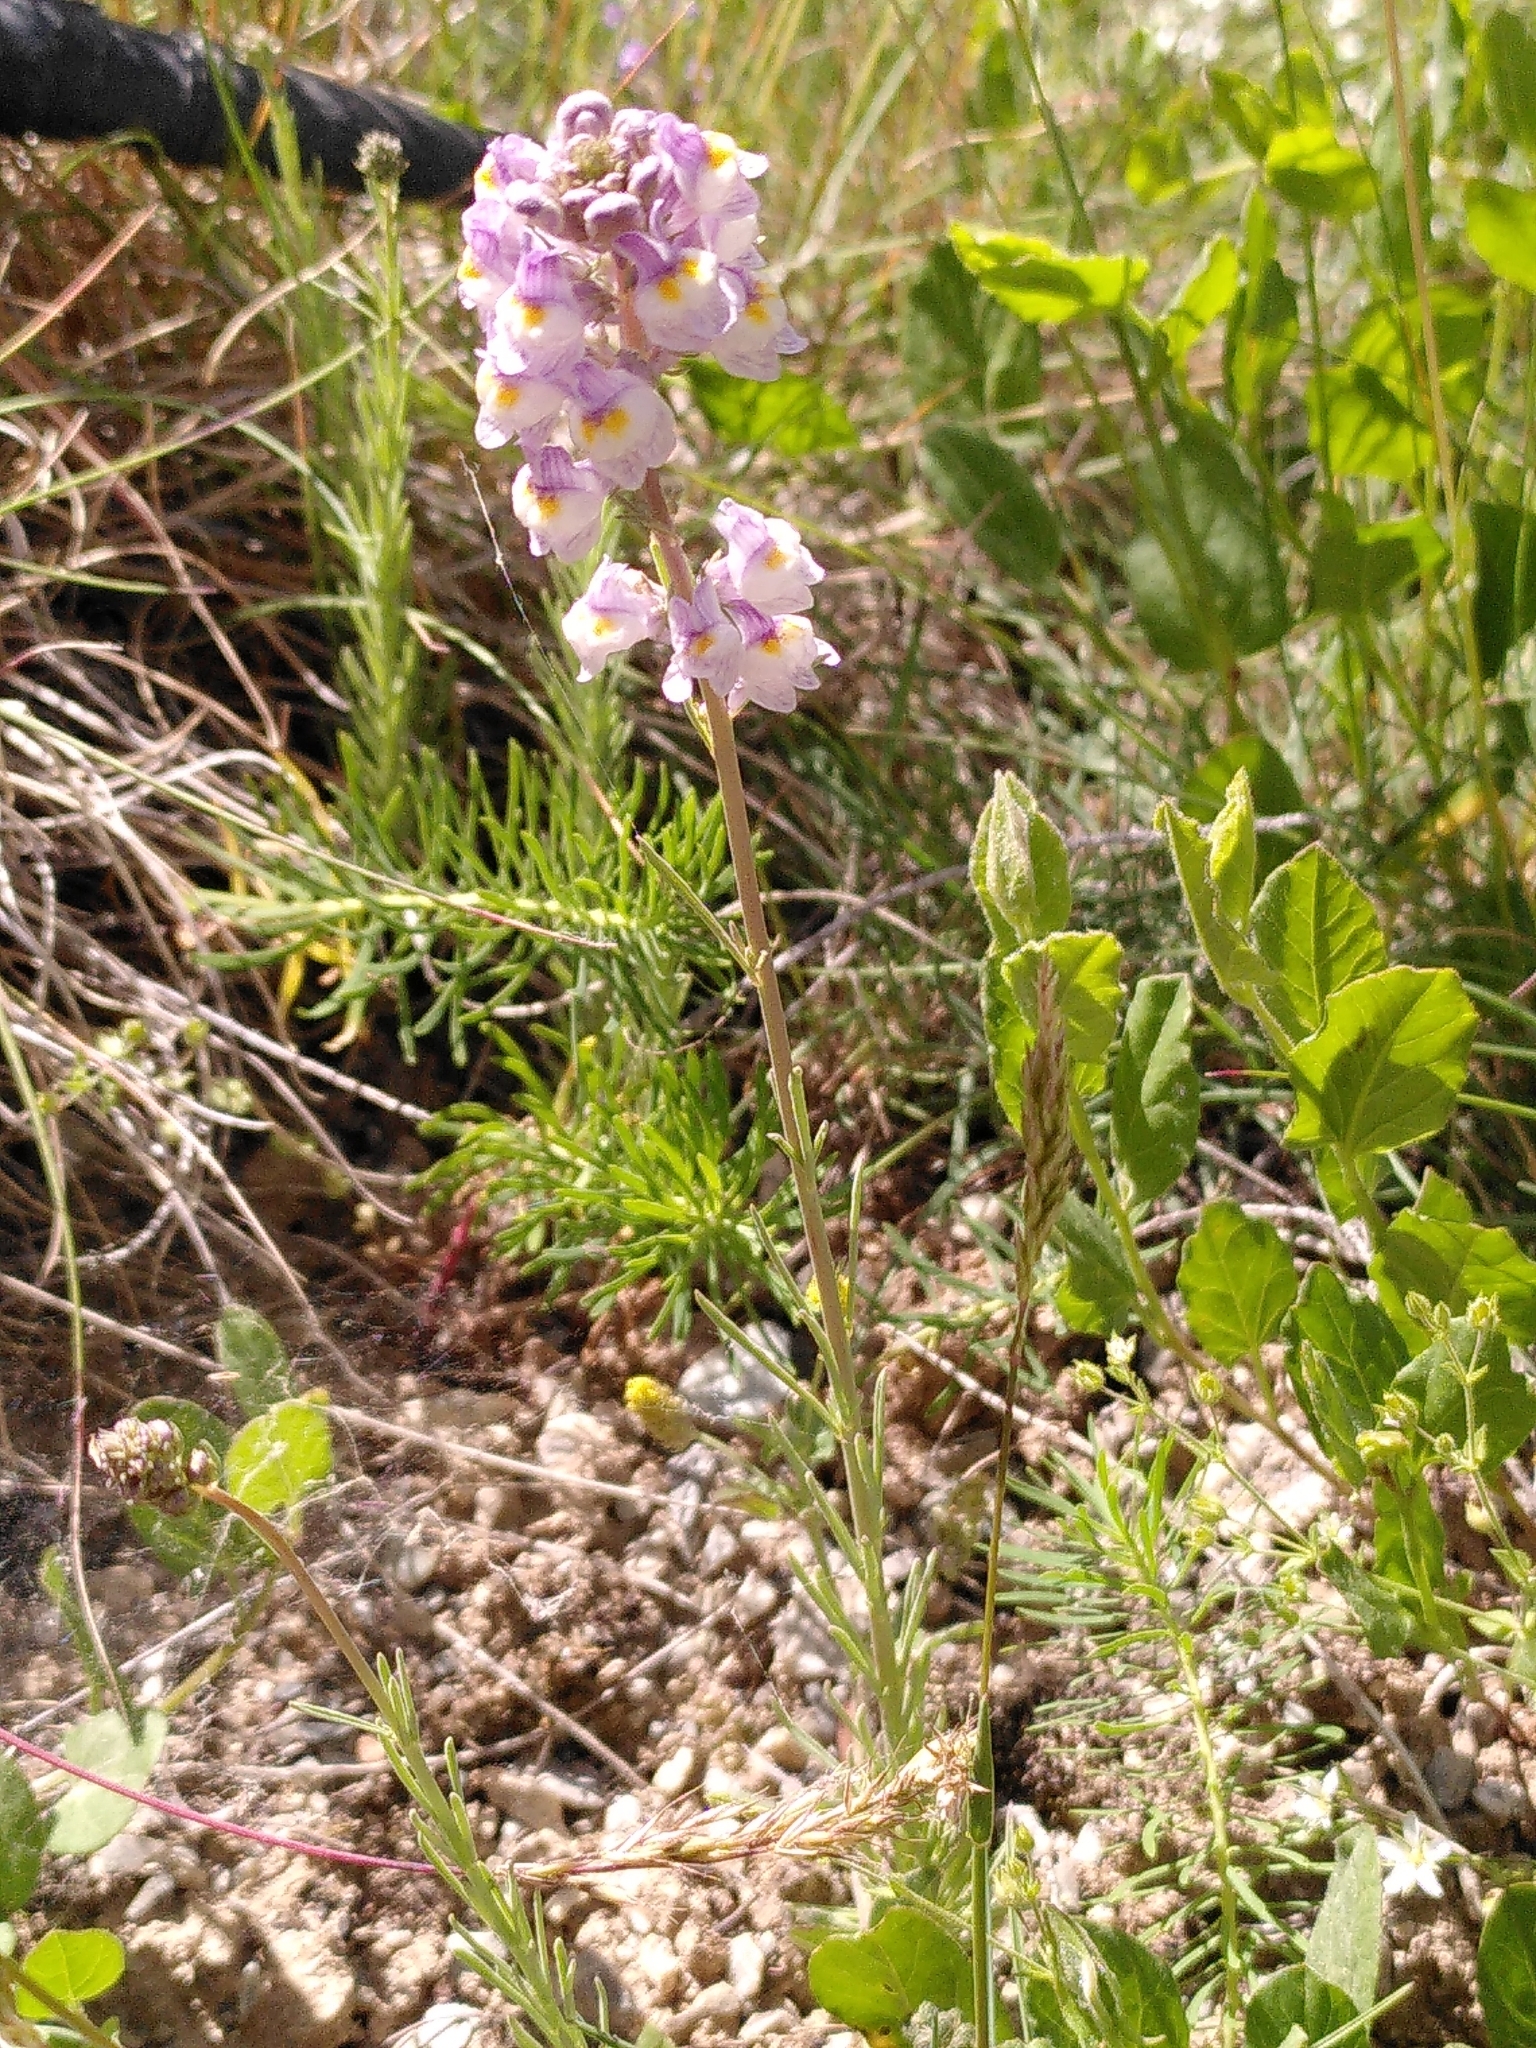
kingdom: Plantae
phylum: Tracheophyta
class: Magnoliopsida
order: Lamiales
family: Plantaginaceae
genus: Linaria
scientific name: Linaria repens
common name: Pale toadflax
